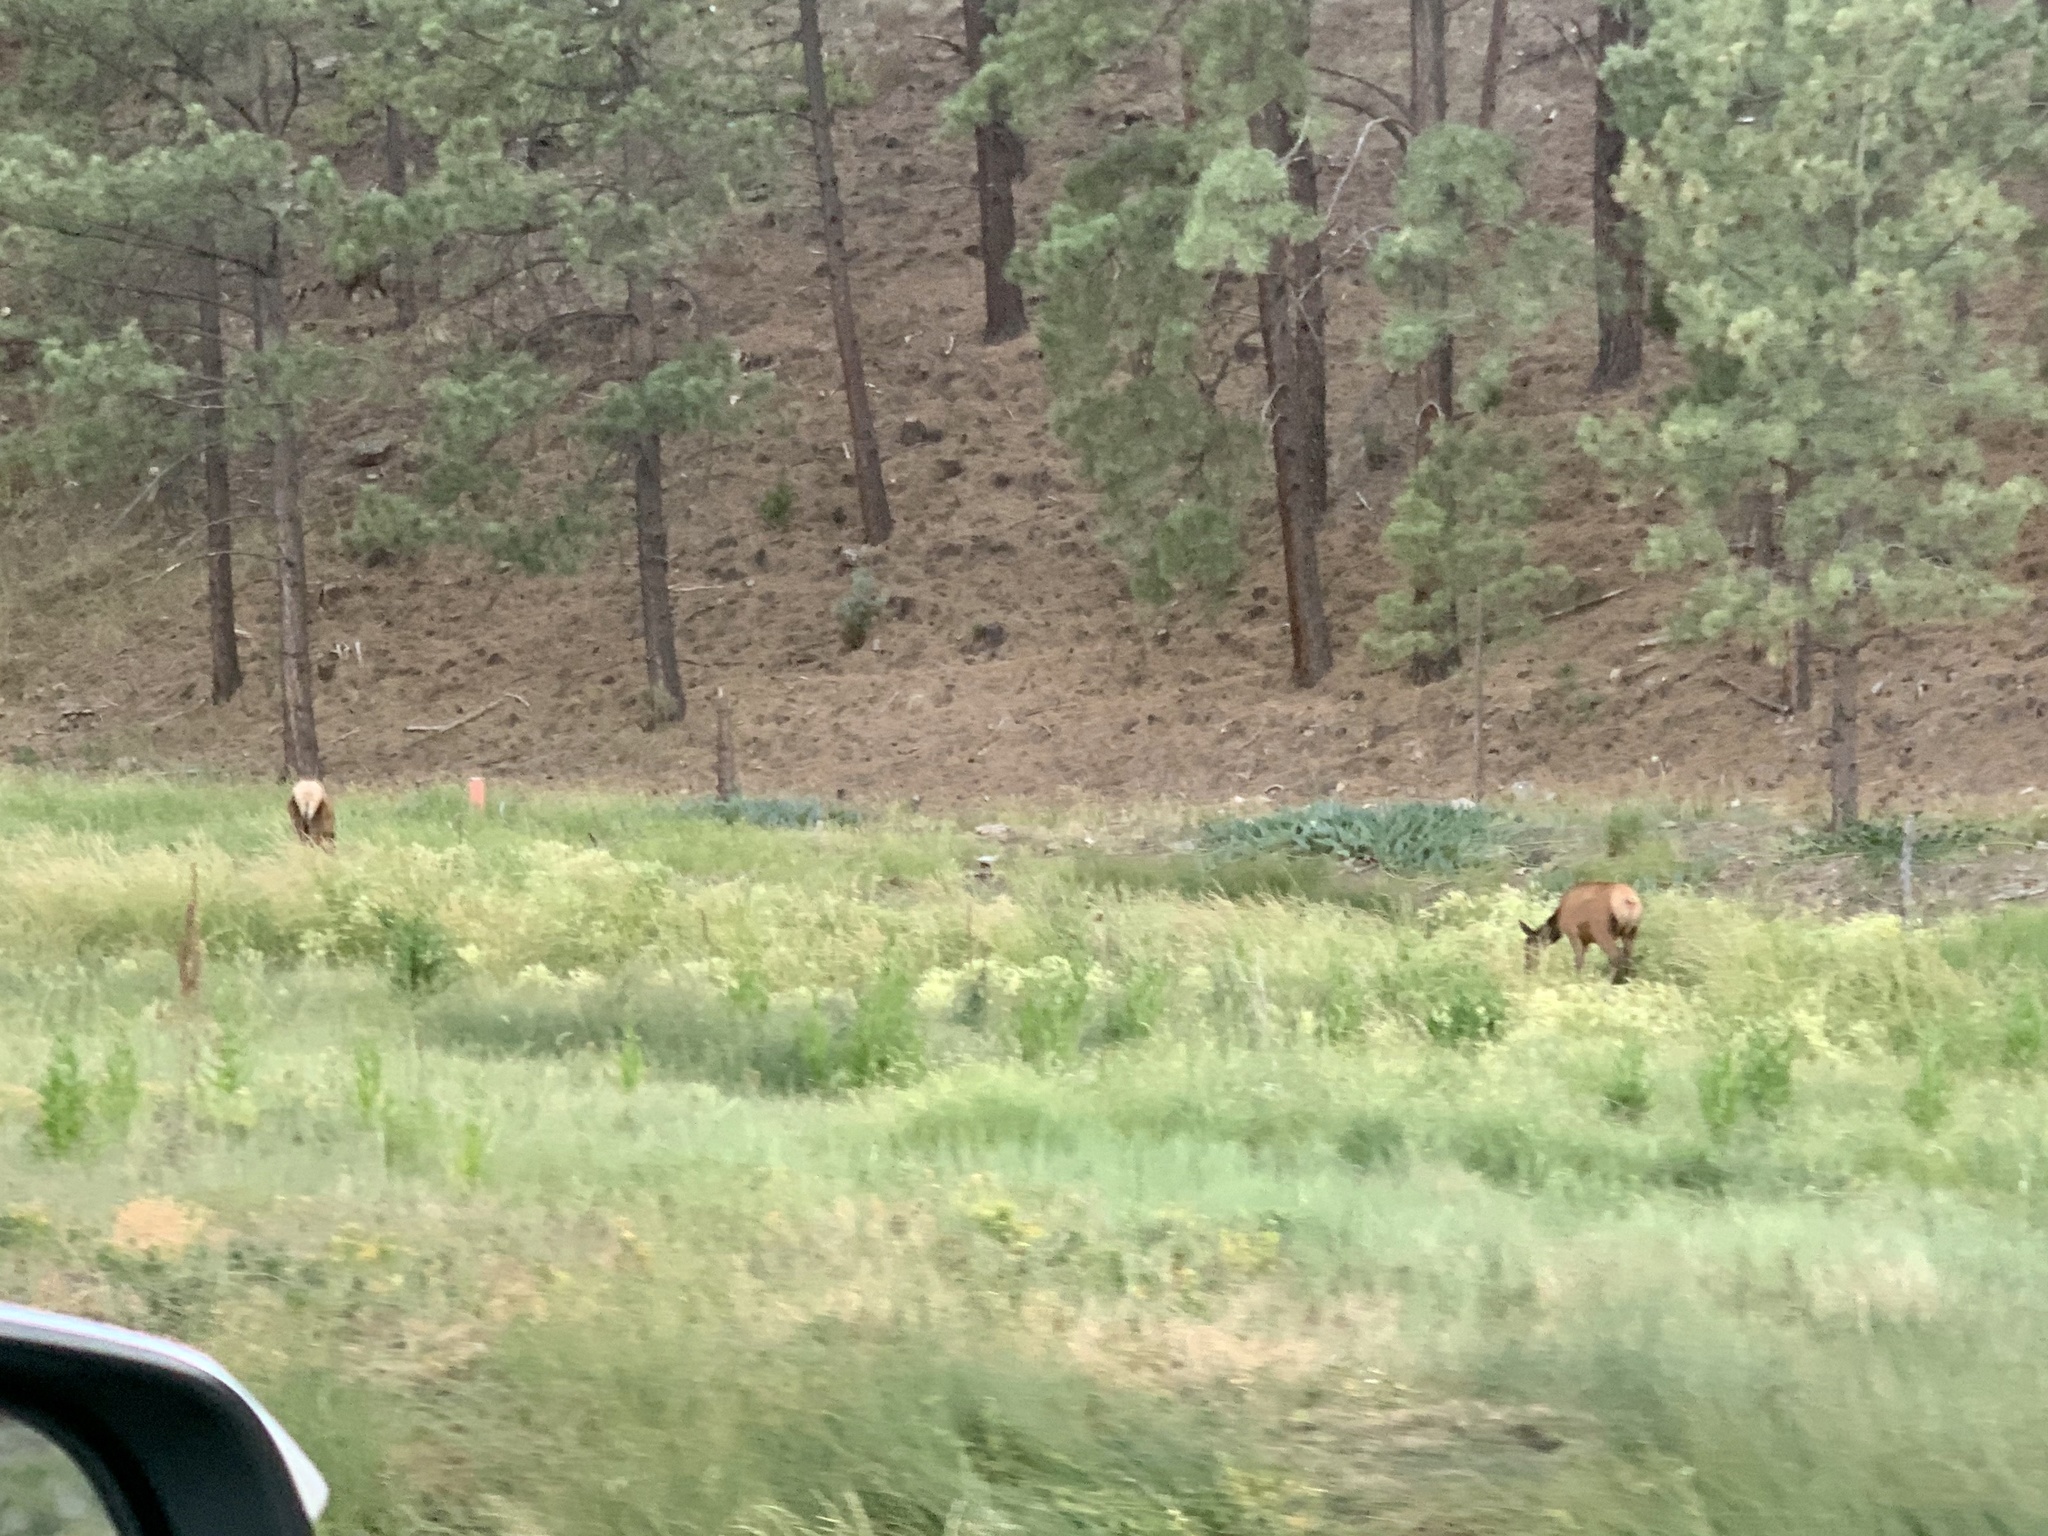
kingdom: Animalia
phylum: Chordata
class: Mammalia
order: Artiodactyla
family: Cervidae
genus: Cervus
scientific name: Cervus elaphus
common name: Red deer
